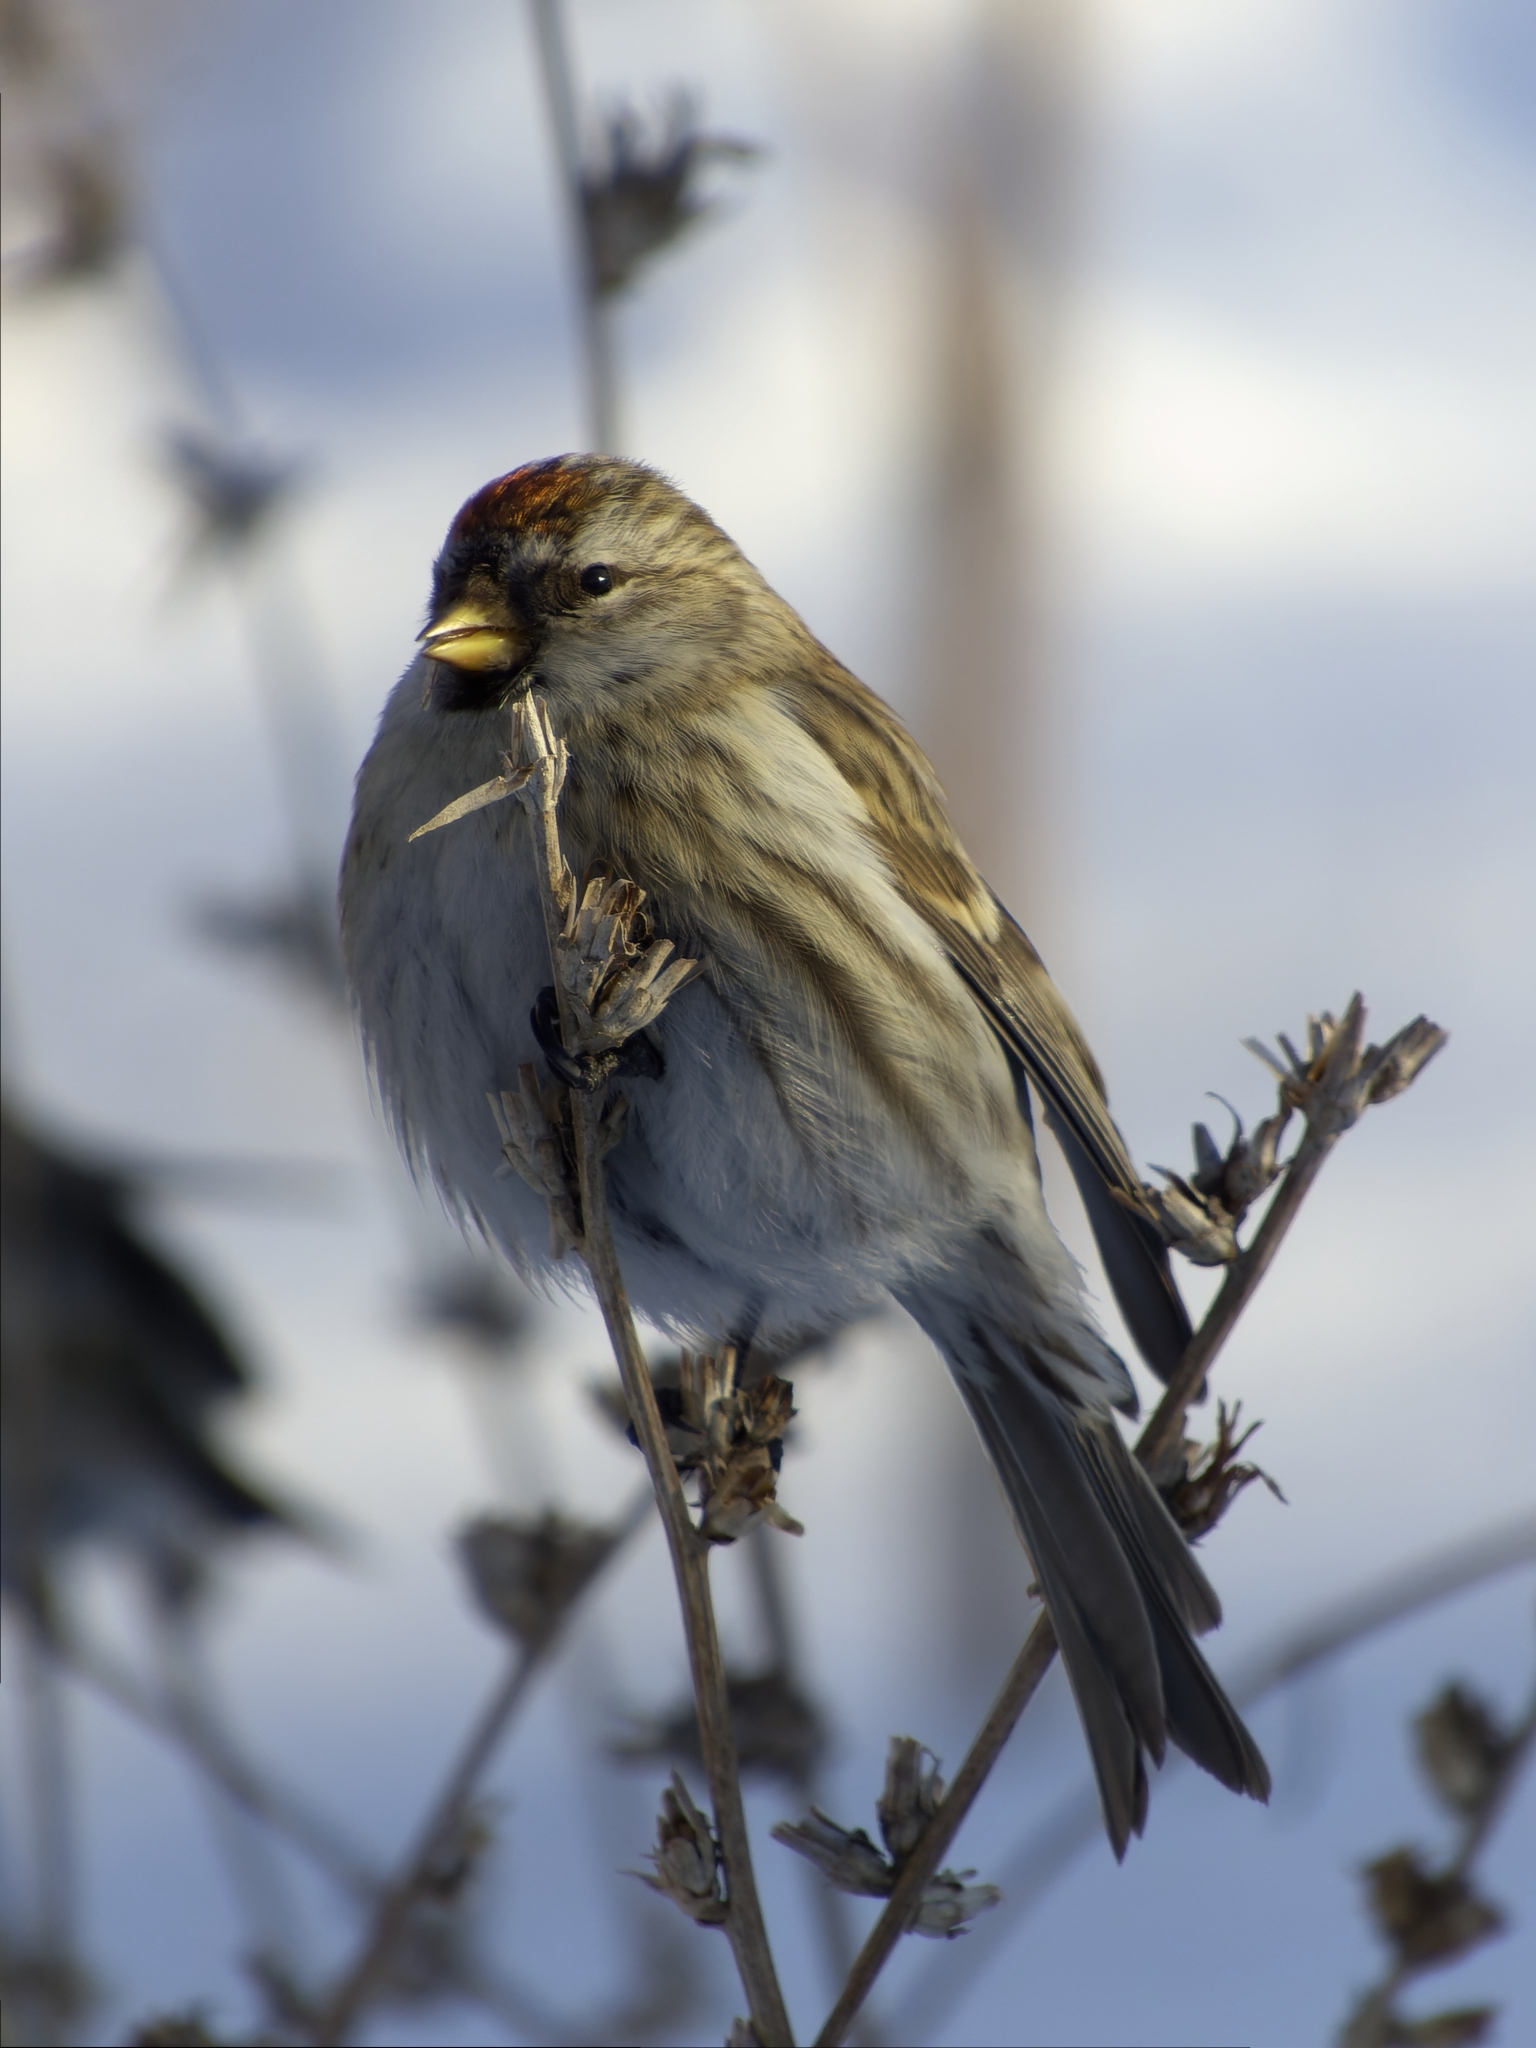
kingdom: Animalia
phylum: Chordata
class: Aves
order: Passeriformes
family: Fringillidae
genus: Acanthis
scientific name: Acanthis flammea
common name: Common redpoll
